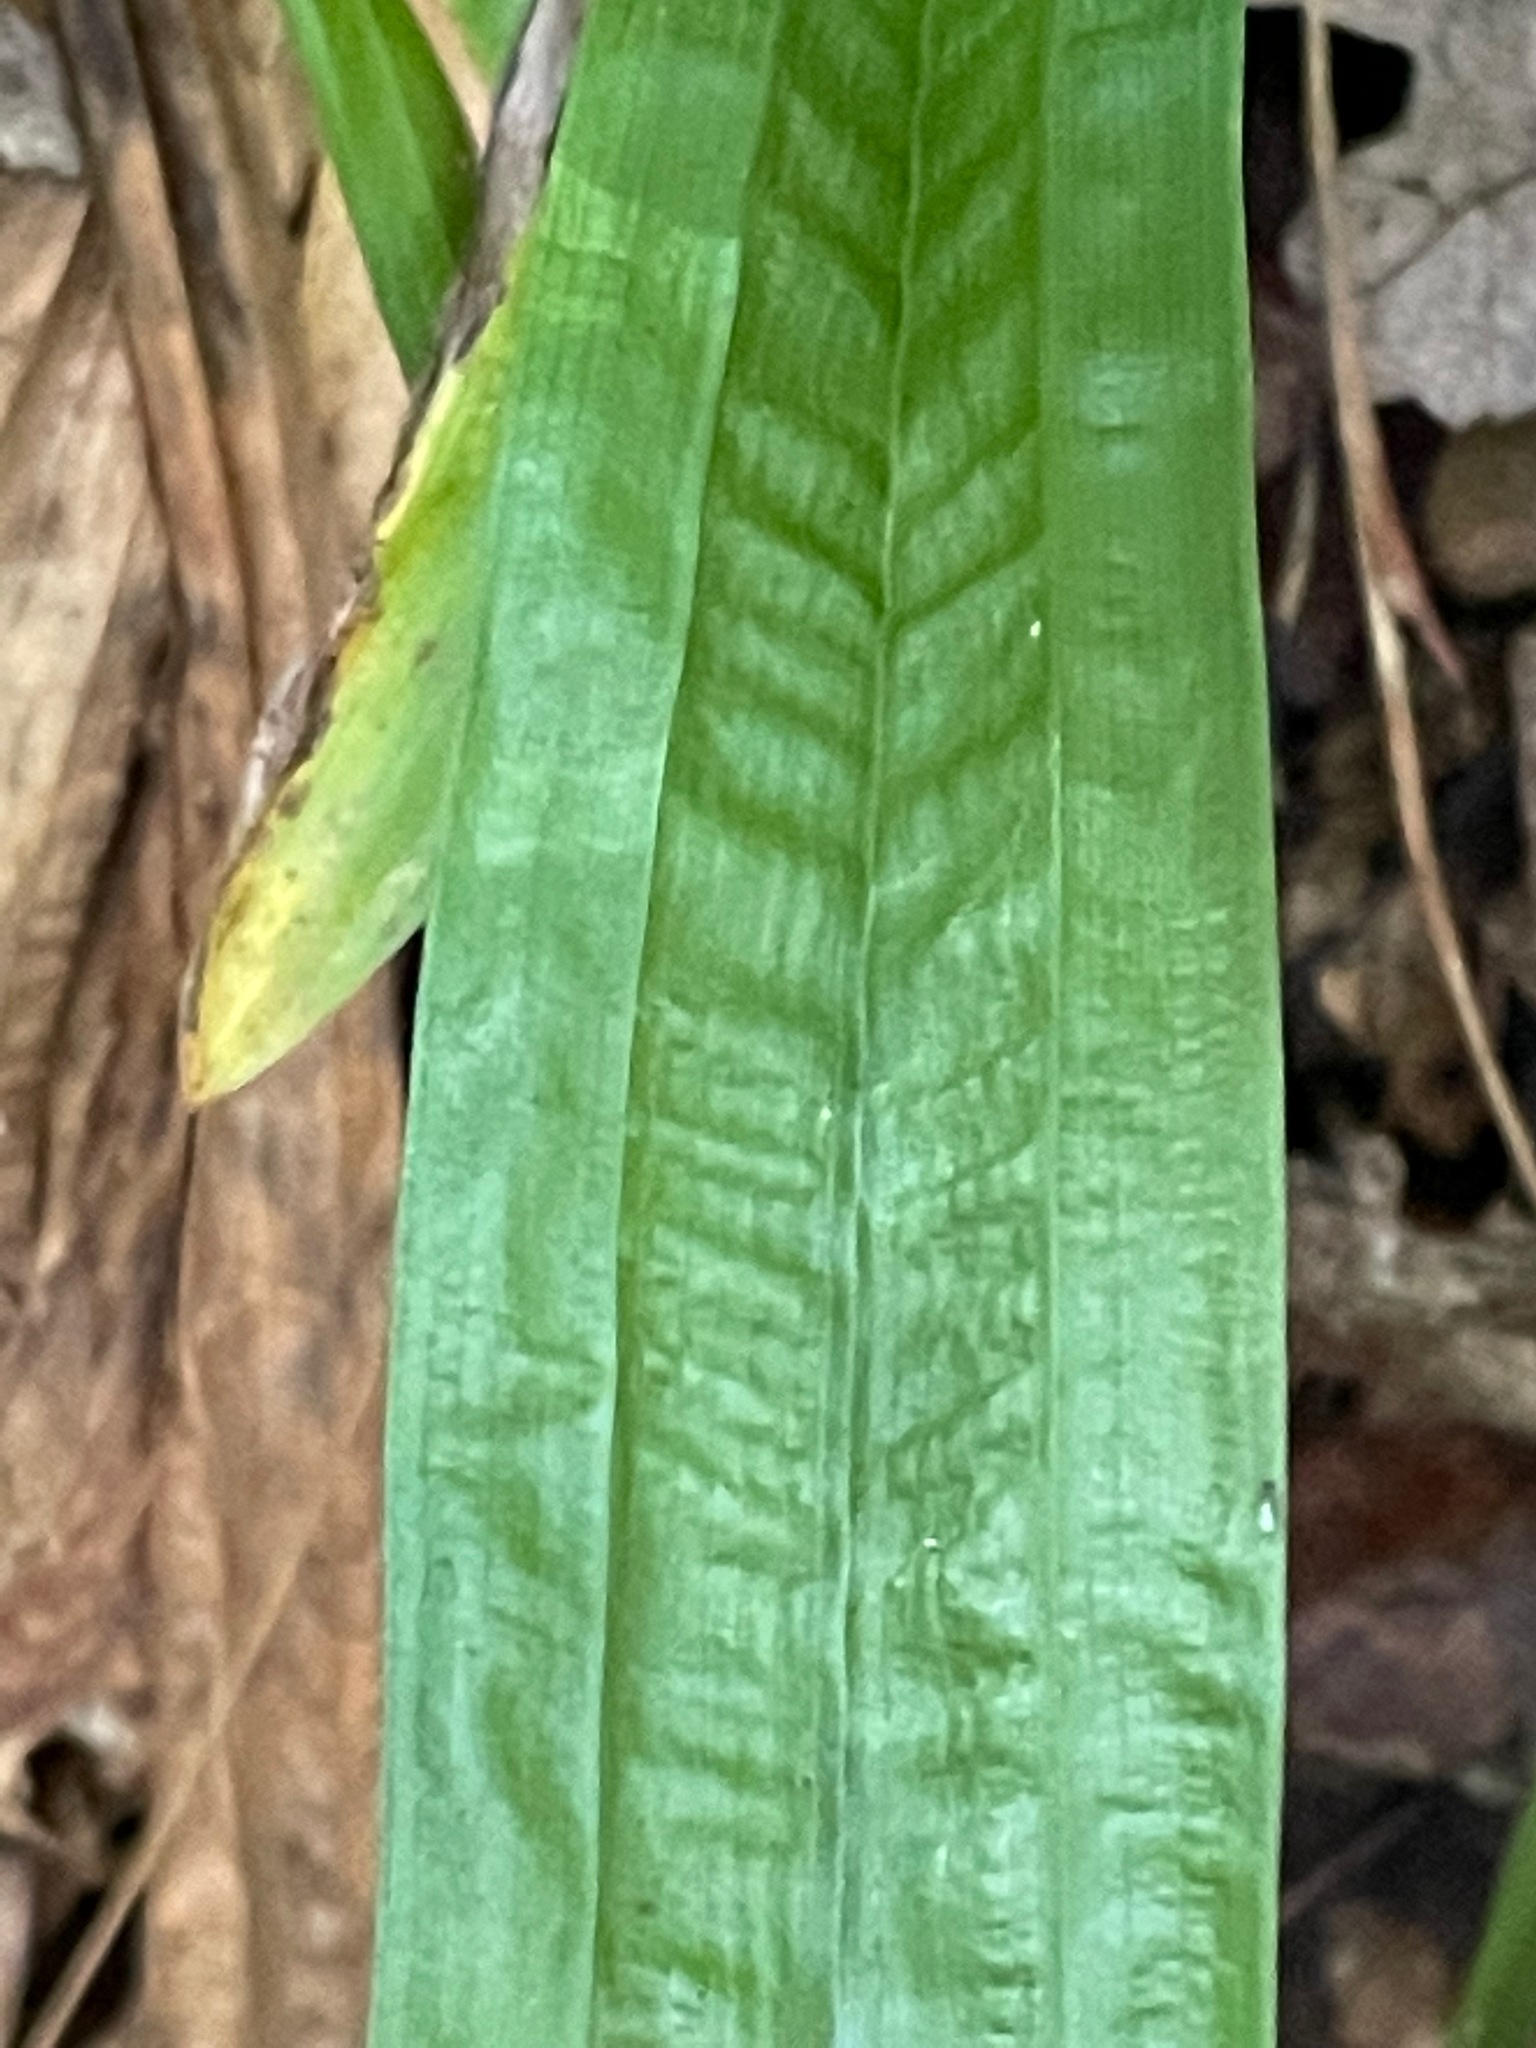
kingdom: Plantae
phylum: Tracheophyta
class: Liliopsida
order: Poales
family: Cyperaceae
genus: Carex
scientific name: Carex plantaginea
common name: Plantain-leaved sedge
